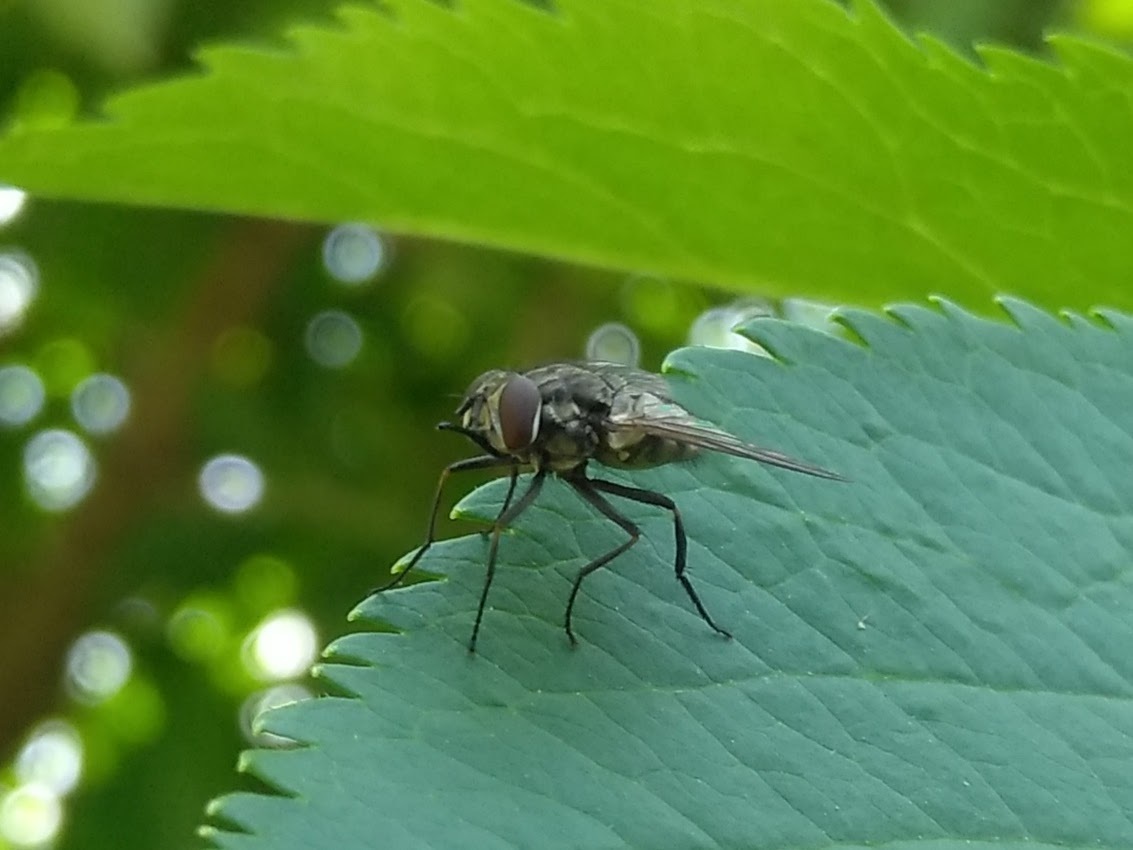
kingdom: Animalia
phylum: Arthropoda
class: Insecta
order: Diptera
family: Muscidae
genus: Stomoxys
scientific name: Stomoxys calcitrans
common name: Stable fly
